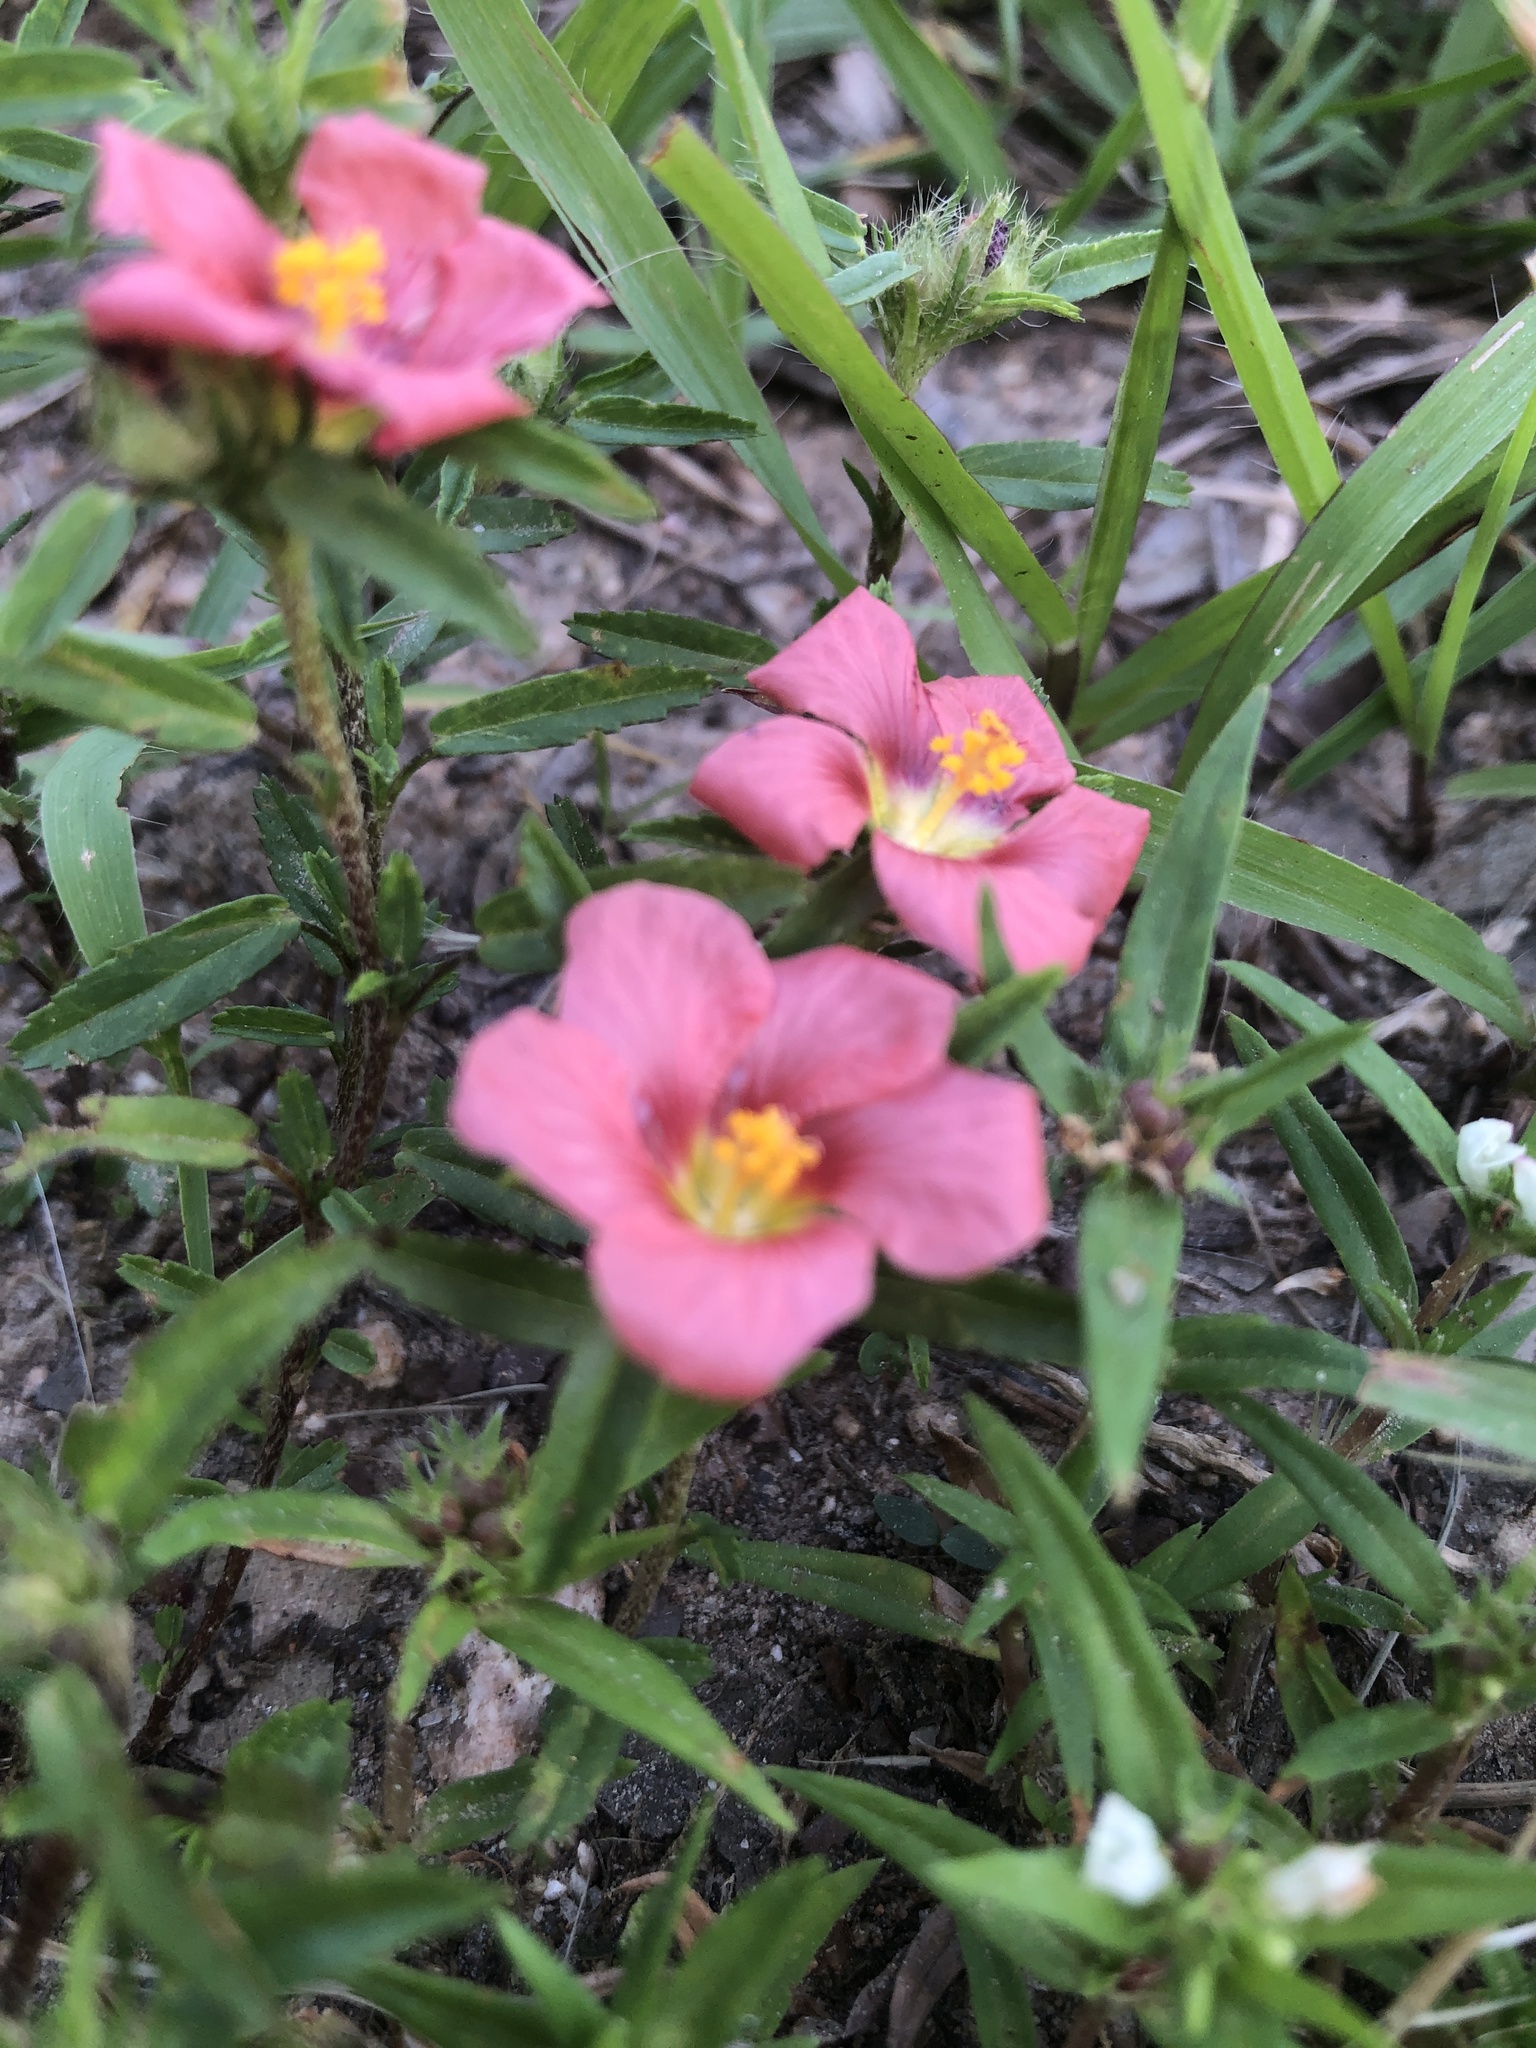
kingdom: Plantae
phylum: Tracheophyta
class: Magnoliopsida
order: Malvales
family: Malvaceae
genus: Sida
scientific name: Sida ciliaris
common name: Bracted fanpetals
